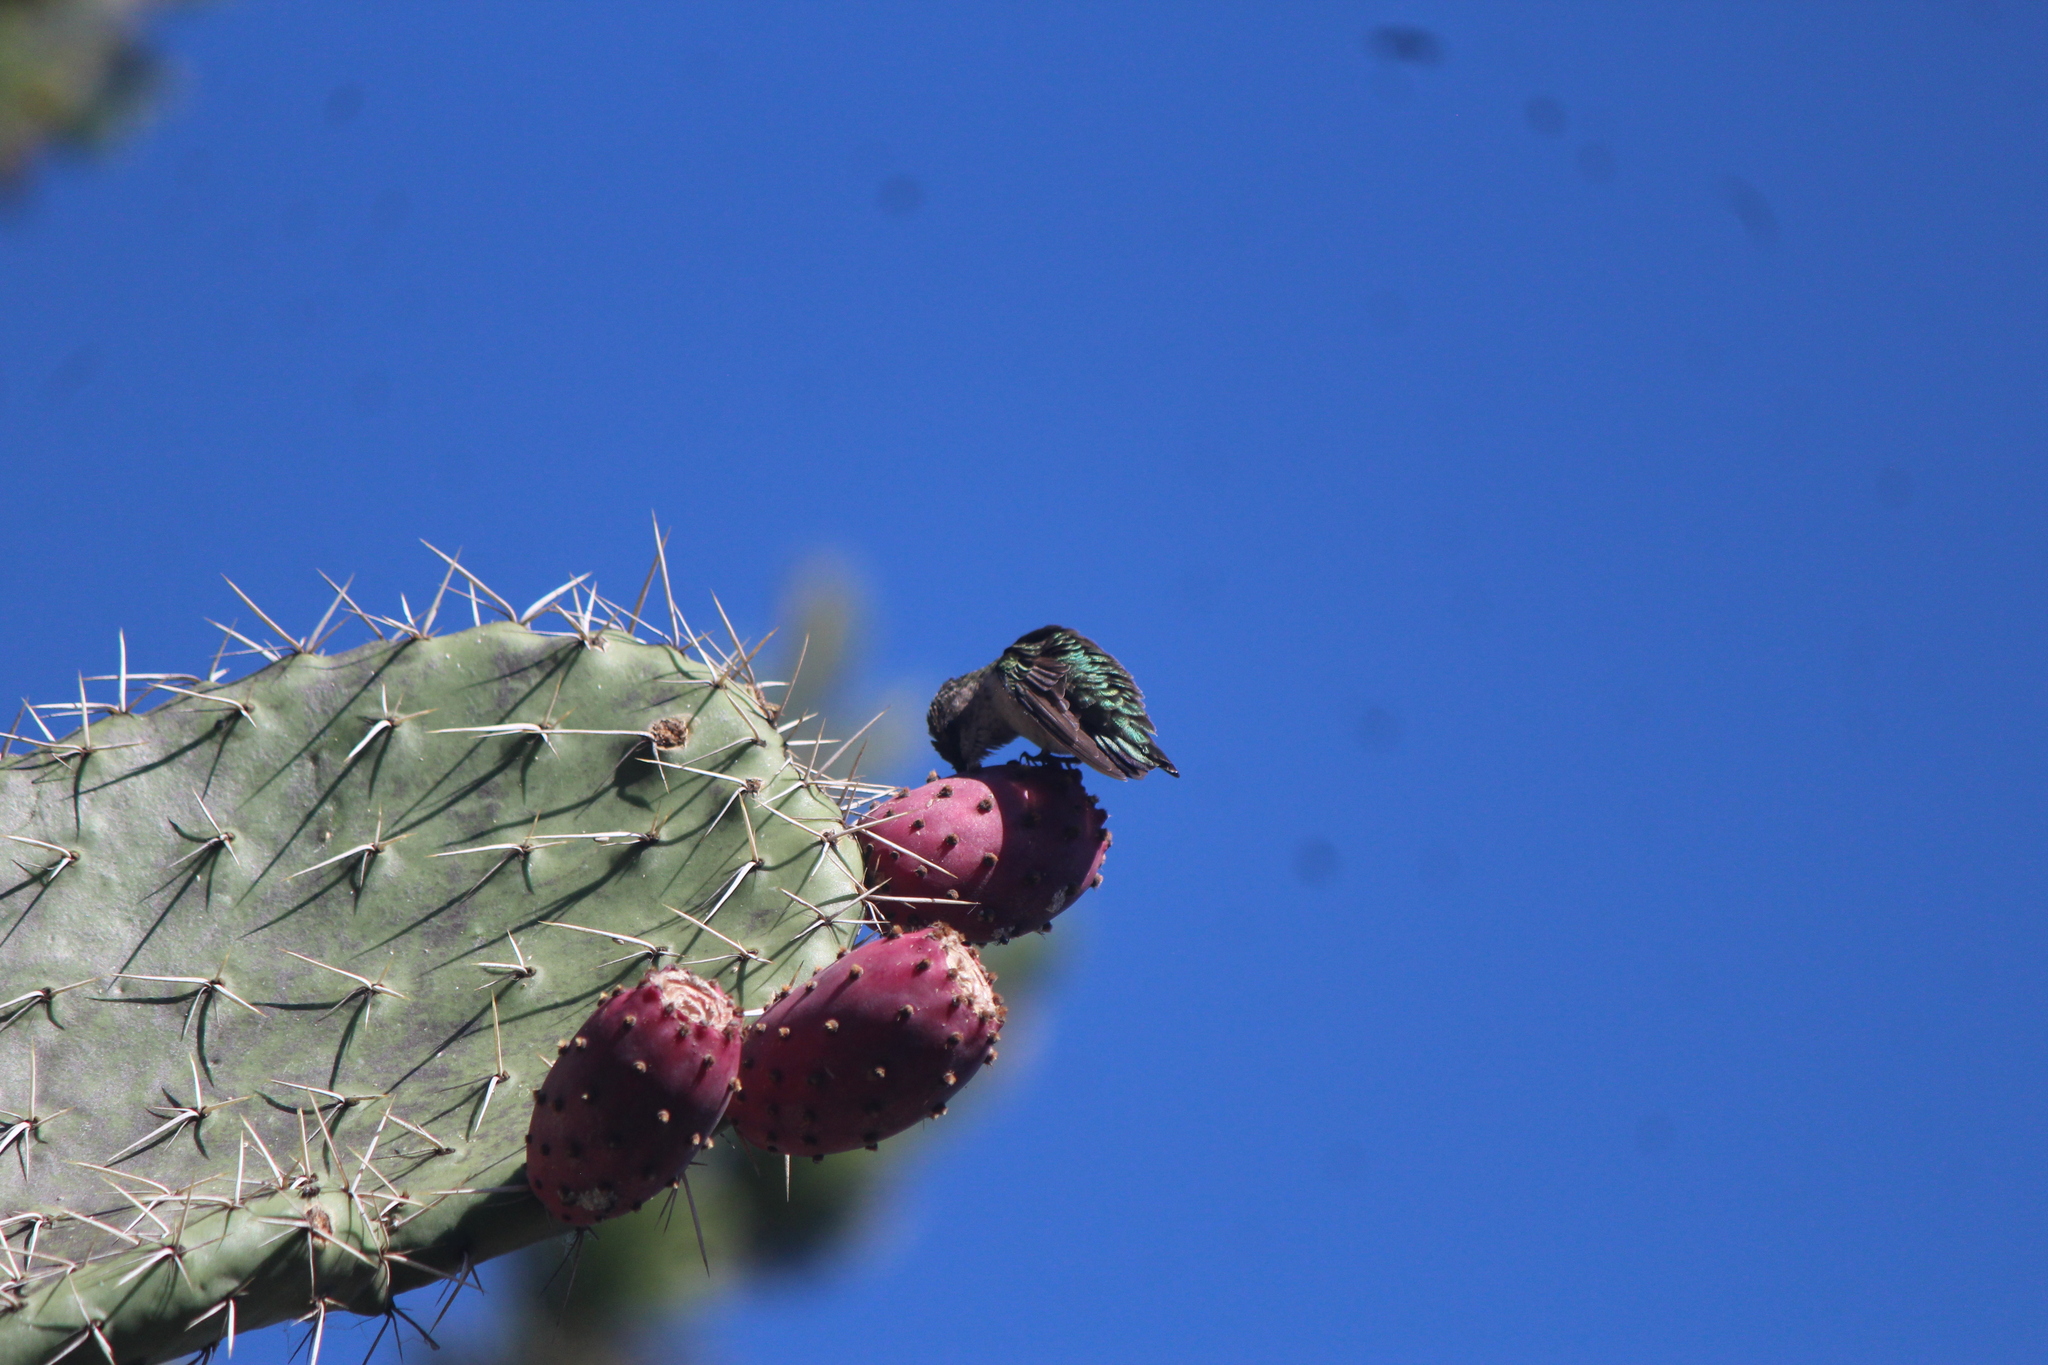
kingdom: Animalia
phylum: Chordata
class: Aves
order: Apodiformes
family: Trochilidae
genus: Archilochus
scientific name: Archilochus colubris
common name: Ruby-throated hummingbird
